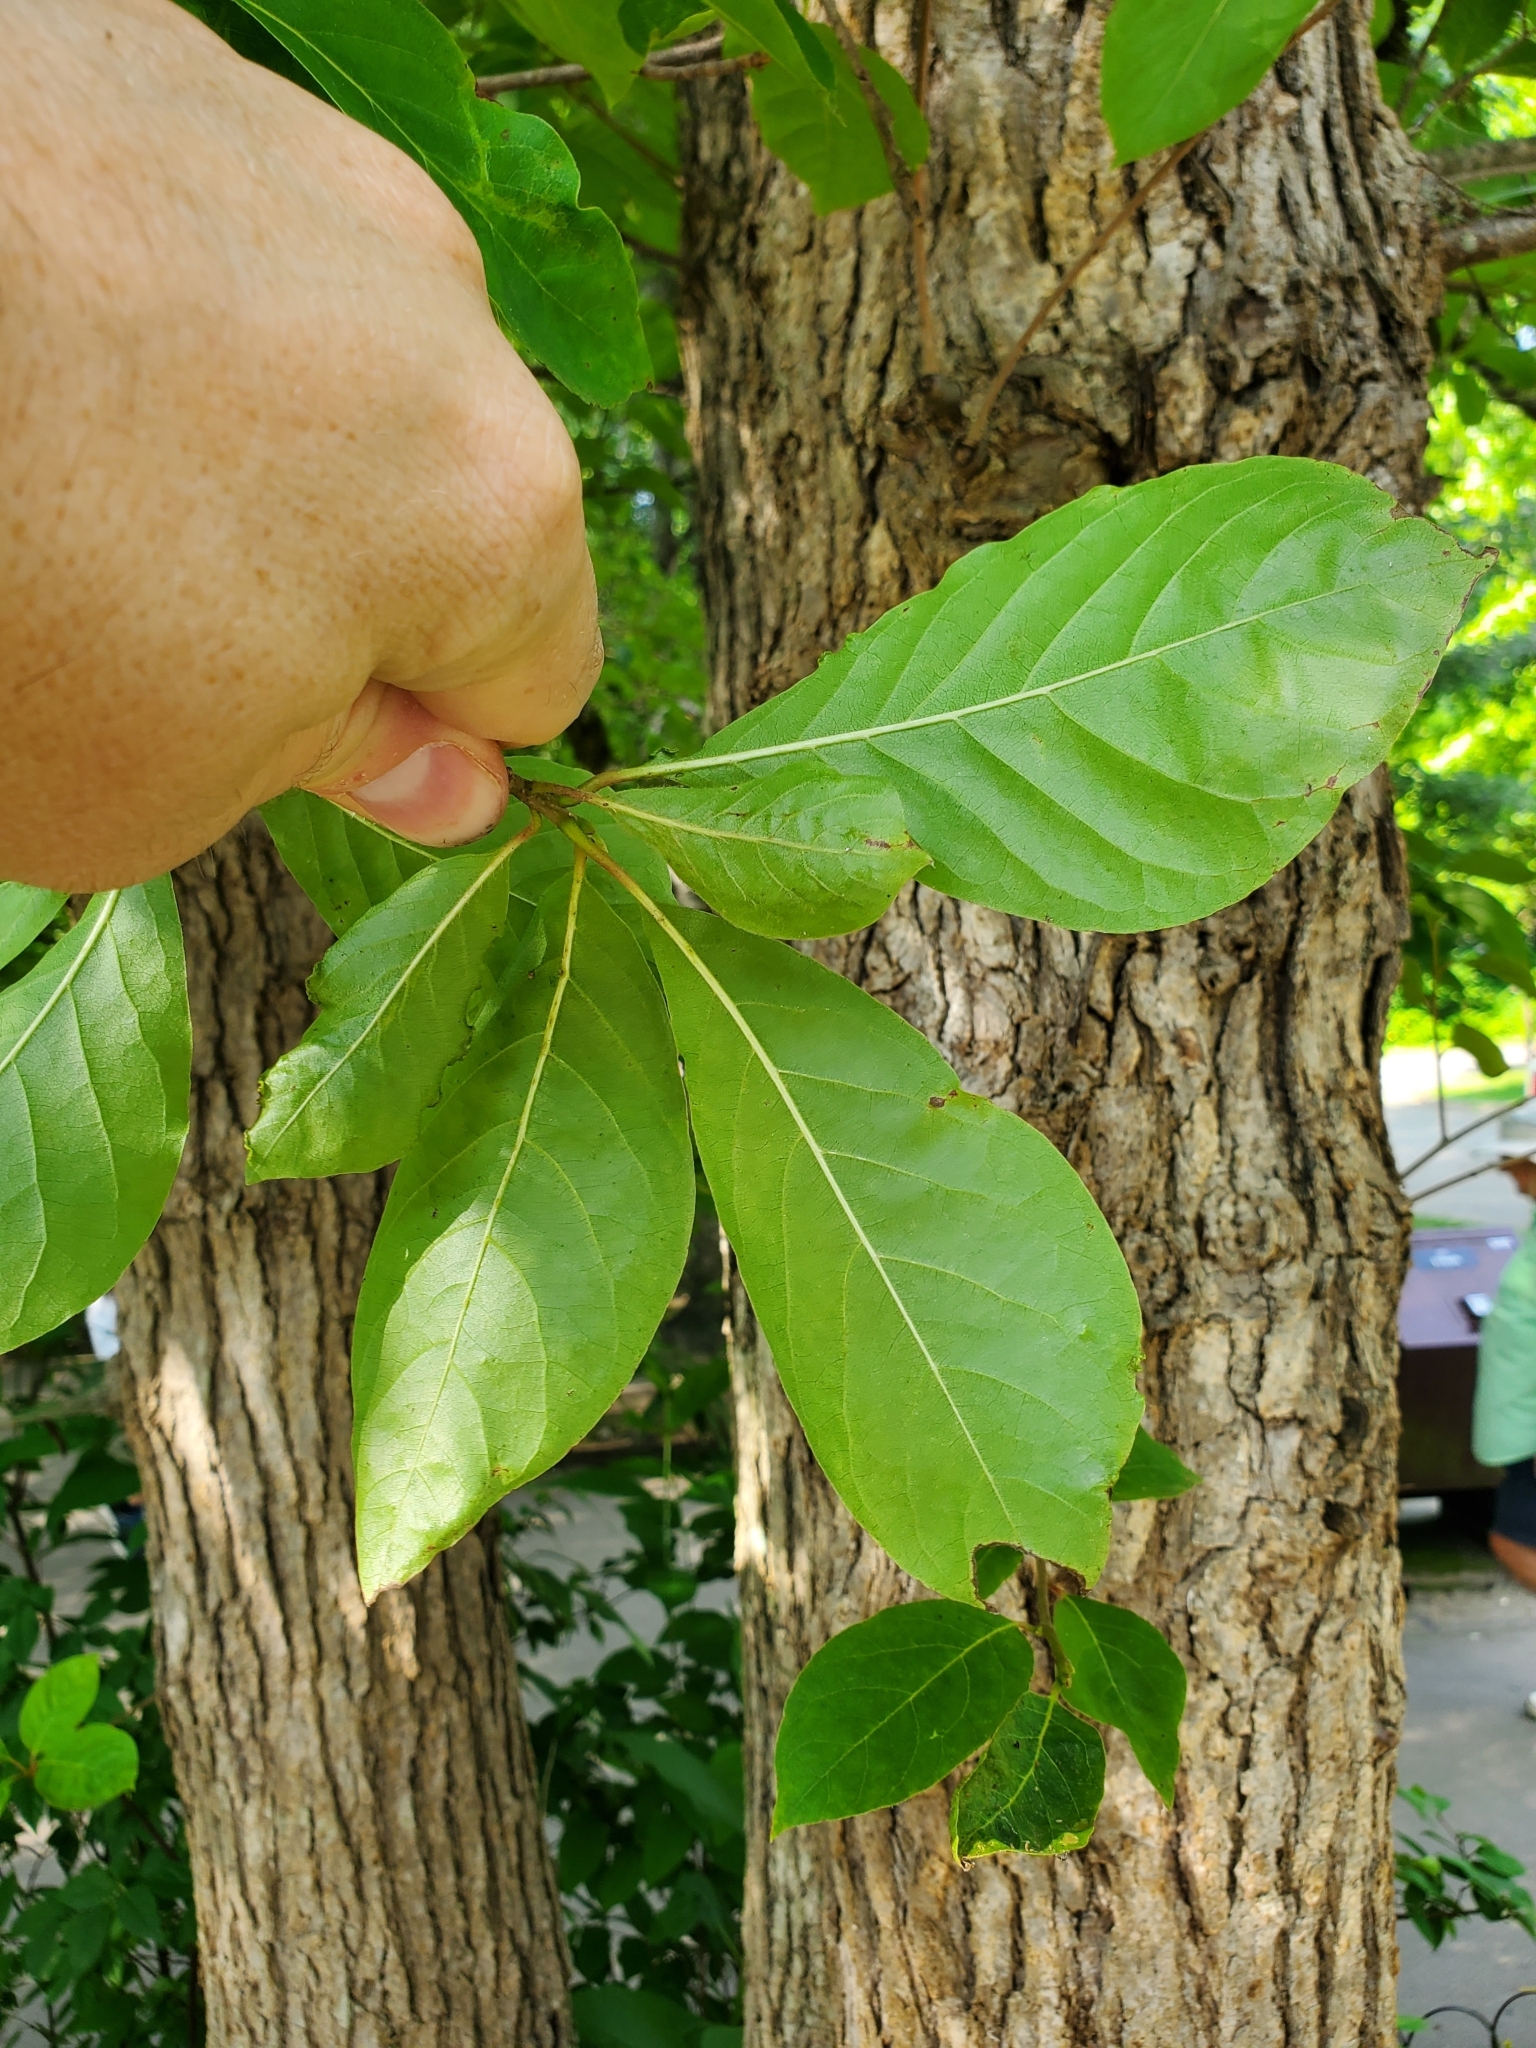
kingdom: Plantae
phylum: Tracheophyta
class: Magnoliopsida
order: Cornales
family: Nyssaceae
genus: Nyssa
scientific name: Nyssa sylvatica
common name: Black tupelo
